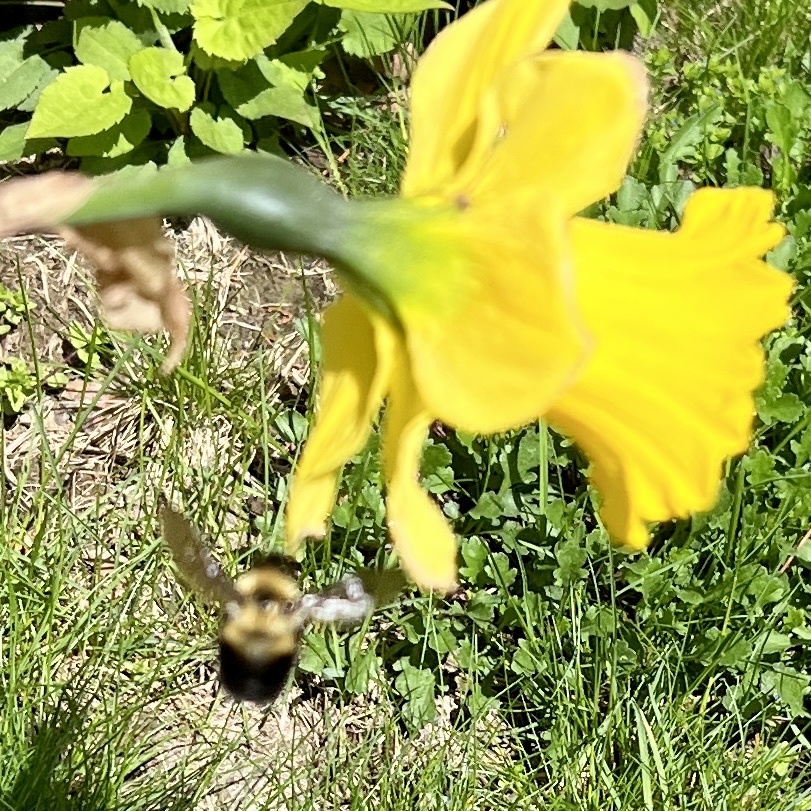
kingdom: Animalia
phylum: Arthropoda
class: Insecta
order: Hymenoptera
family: Apidae
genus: Bombus
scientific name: Bombus bimaculatus
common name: Two-spotted bumble bee
